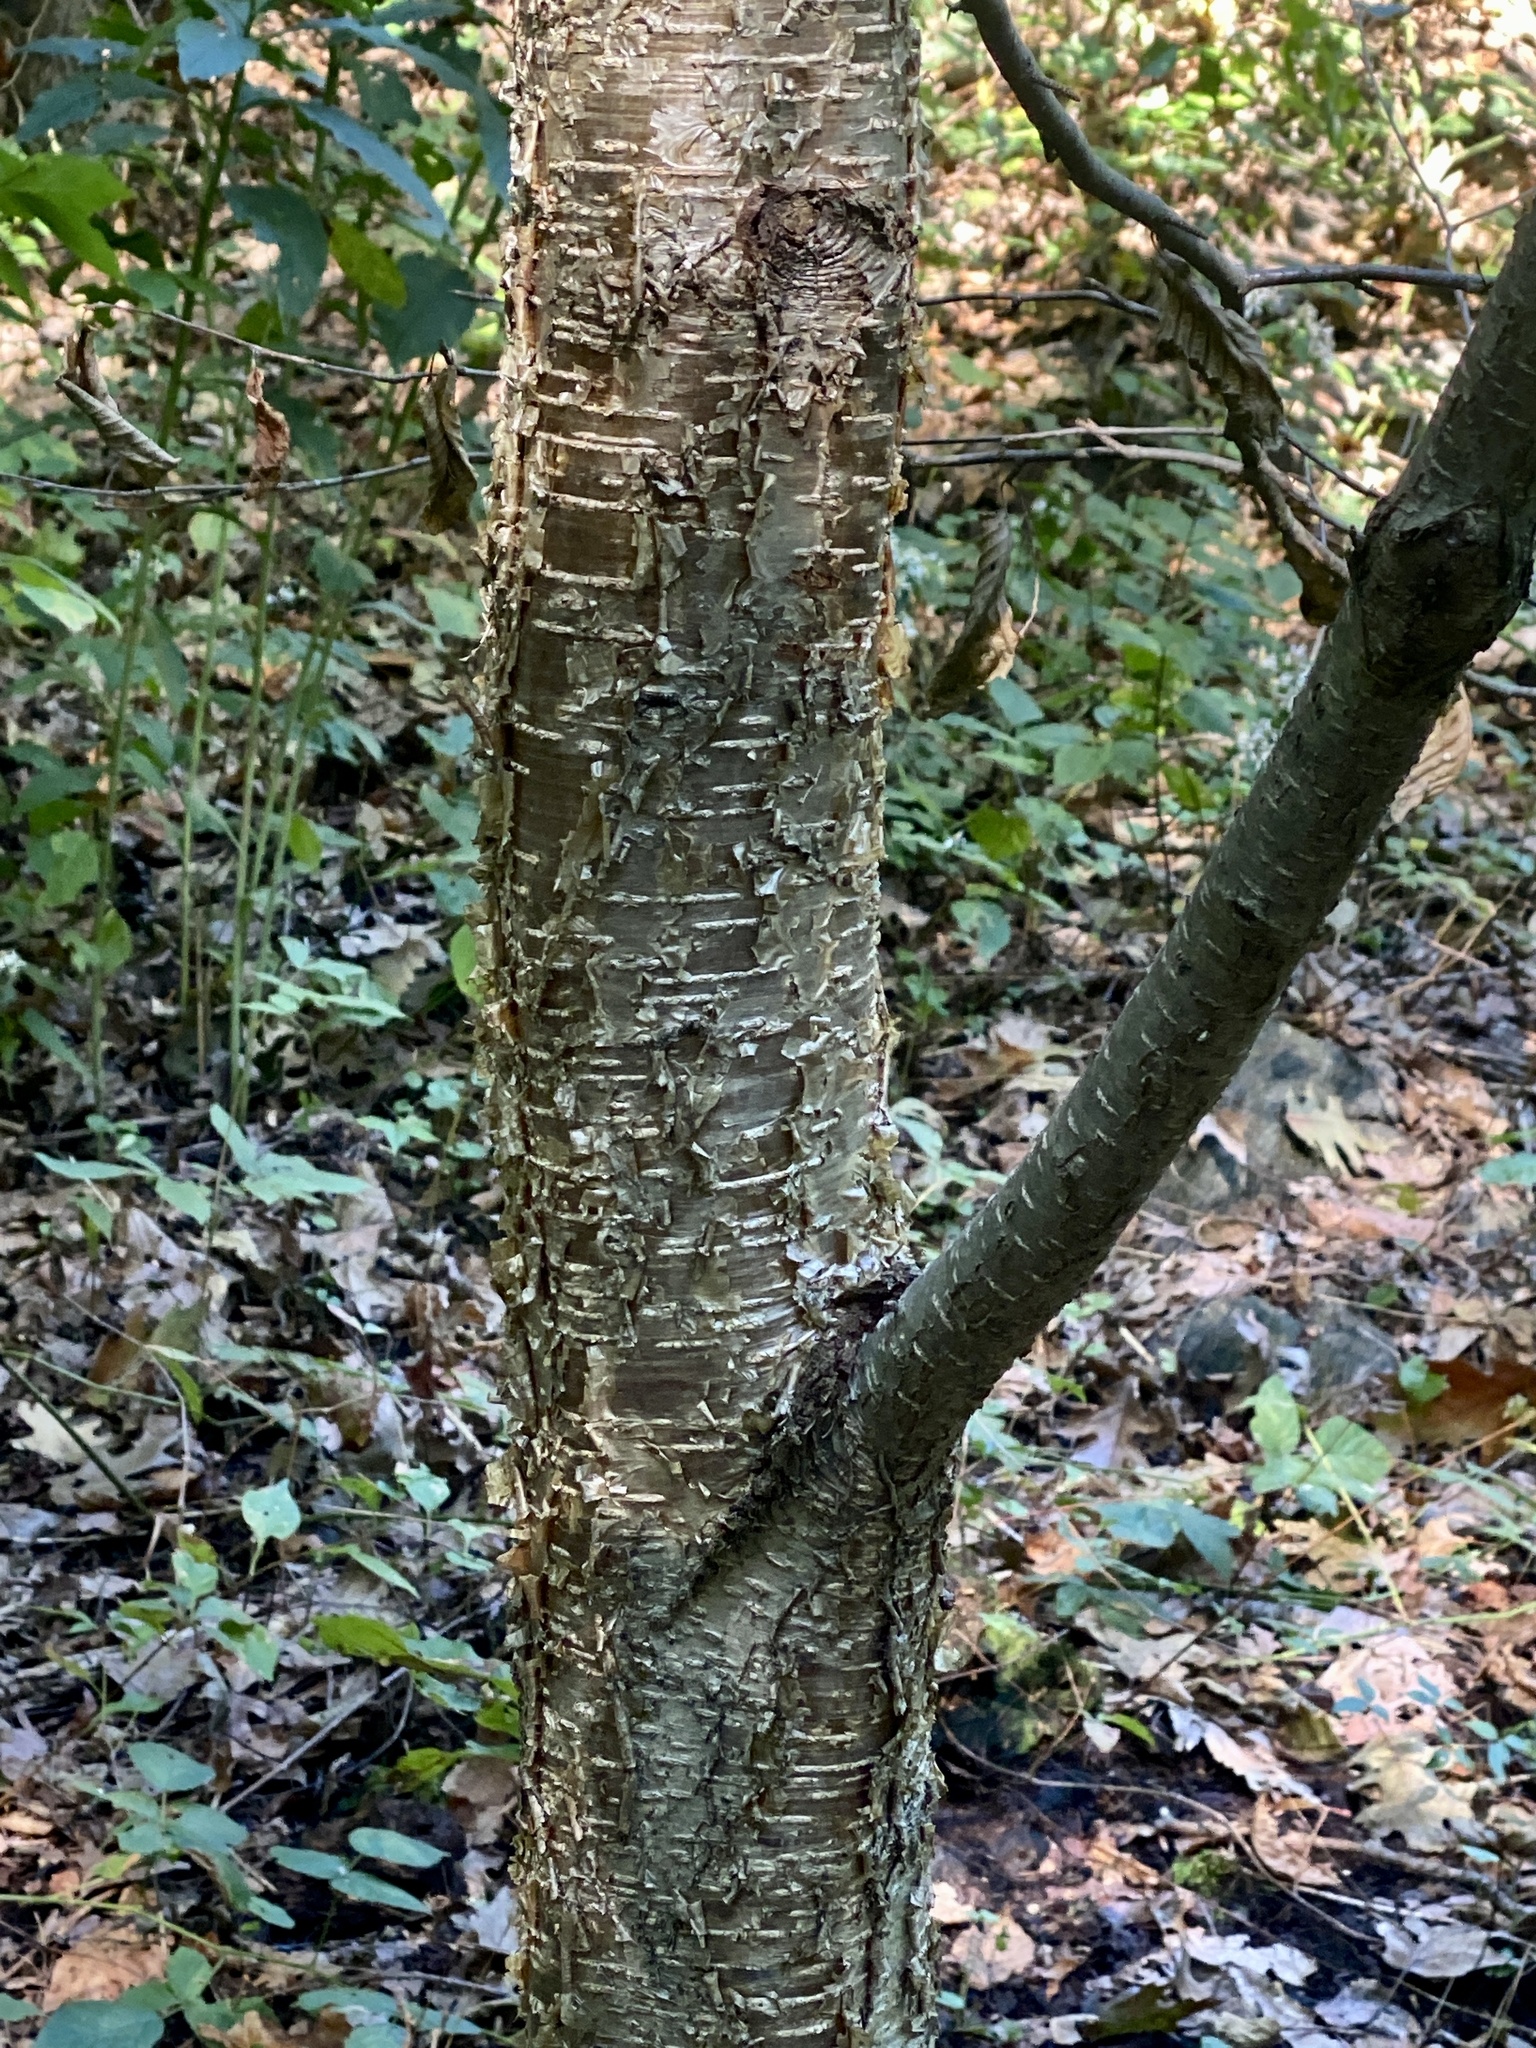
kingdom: Plantae
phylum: Tracheophyta
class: Magnoliopsida
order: Fagales
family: Betulaceae
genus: Betula
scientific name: Betula alleghaniensis
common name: Yellow birch
